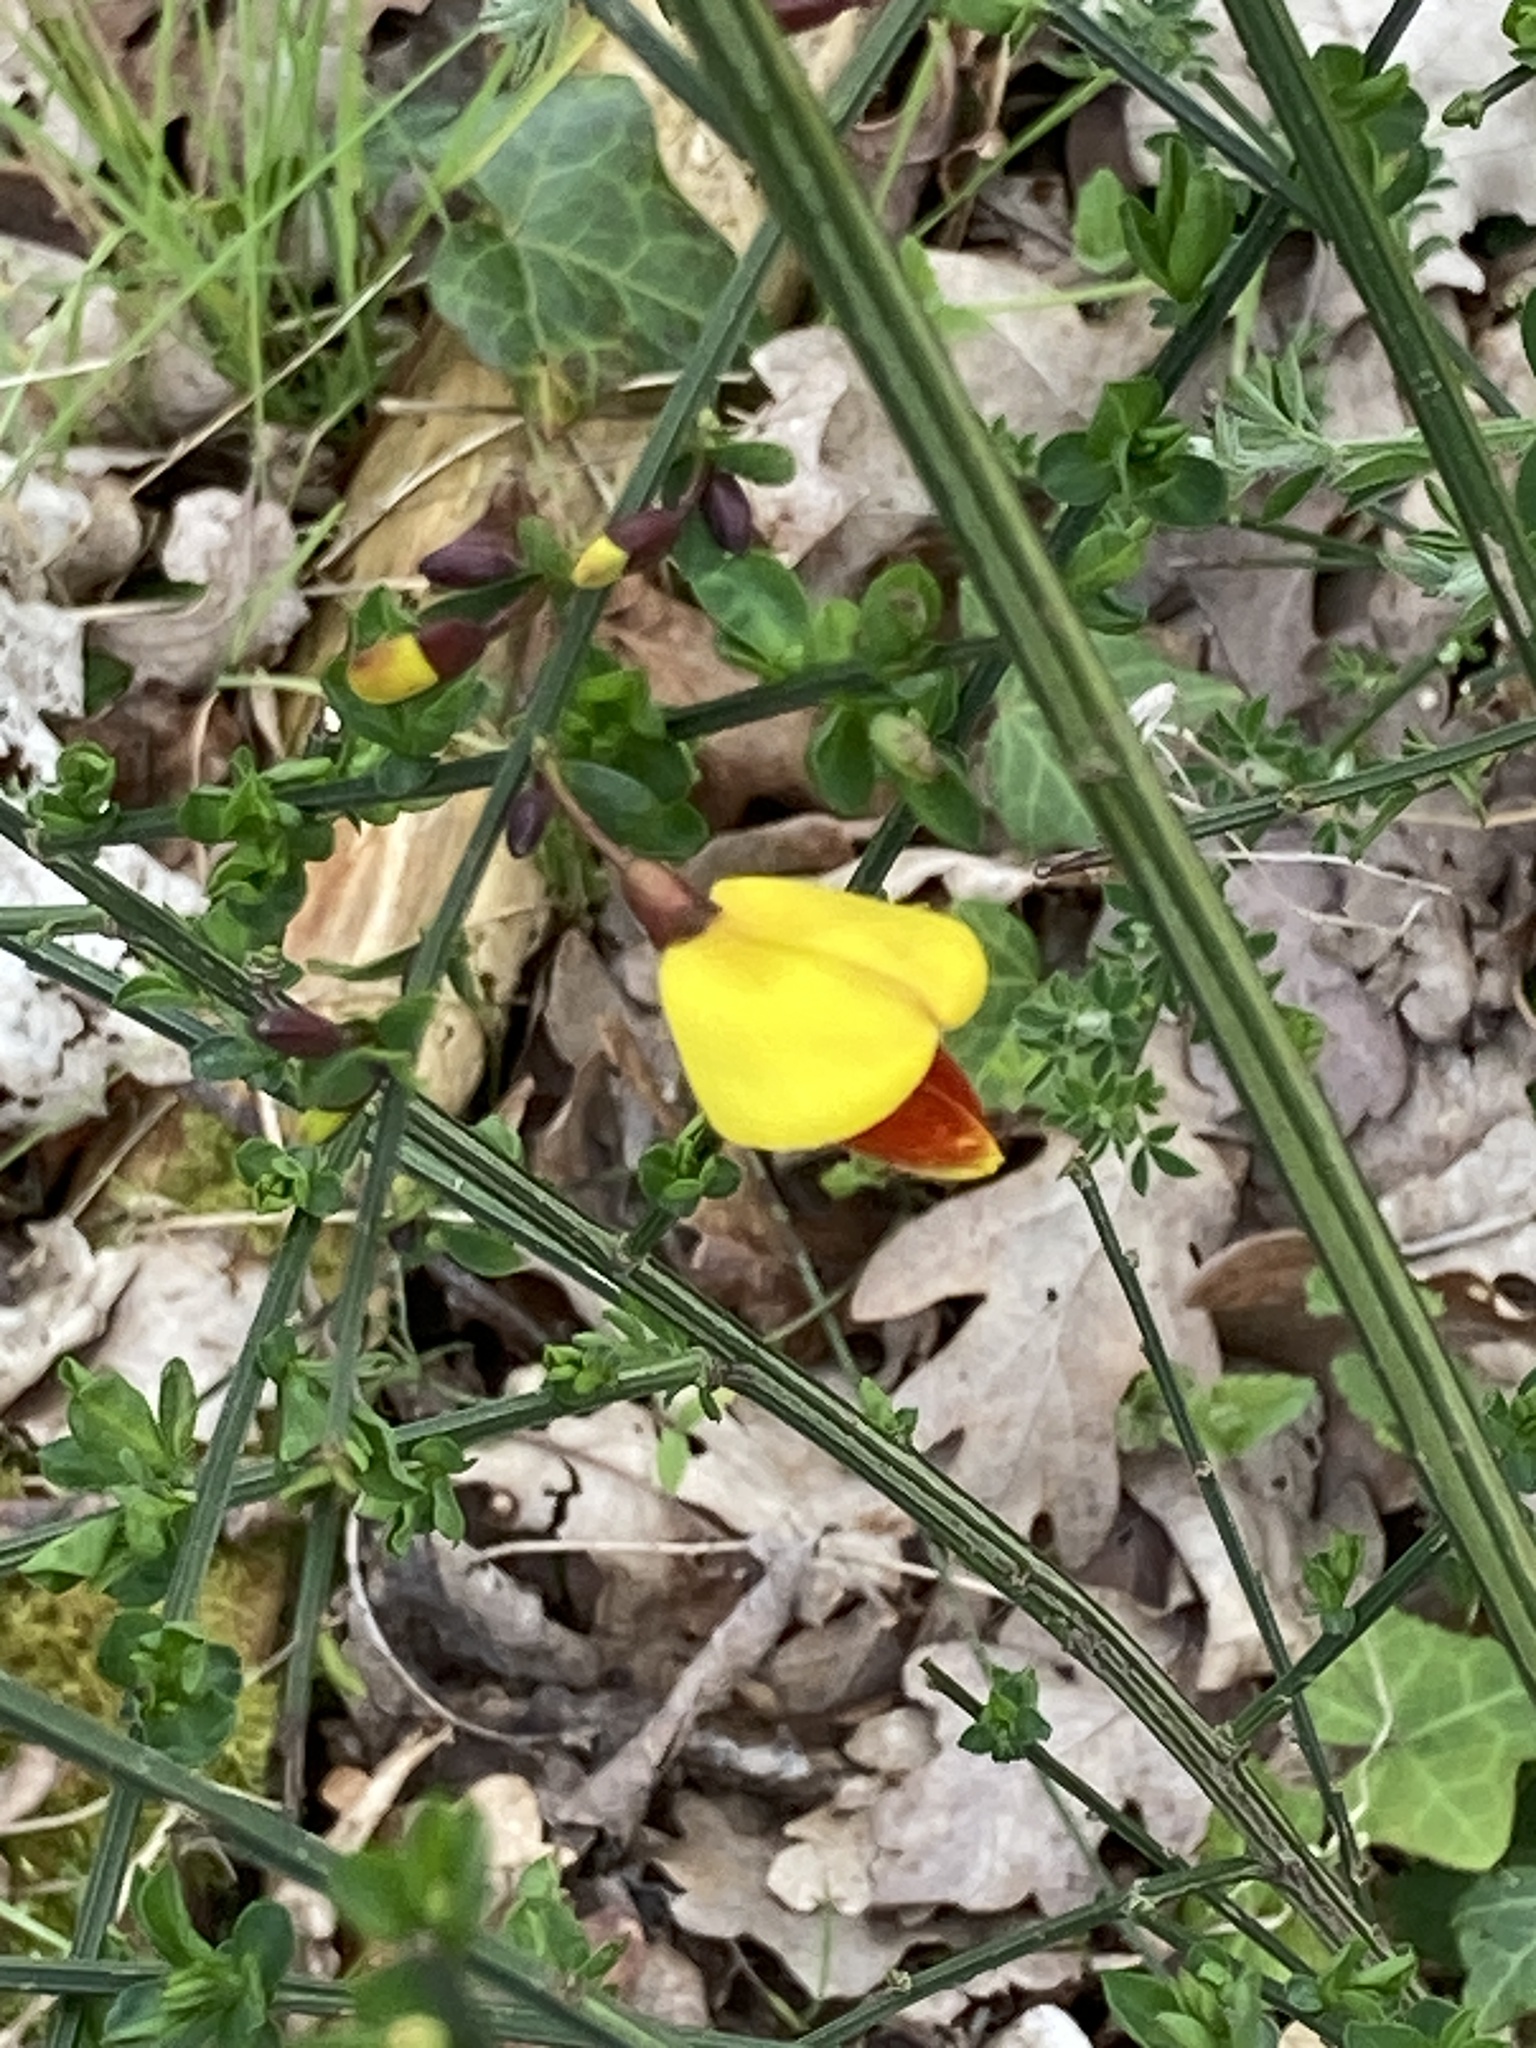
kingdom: Plantae
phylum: Tracheophyta
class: Magnoliopsida
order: Fabales
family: Fabaceae
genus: Cytisus
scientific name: Cytisus scoparius
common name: Scotch broom
